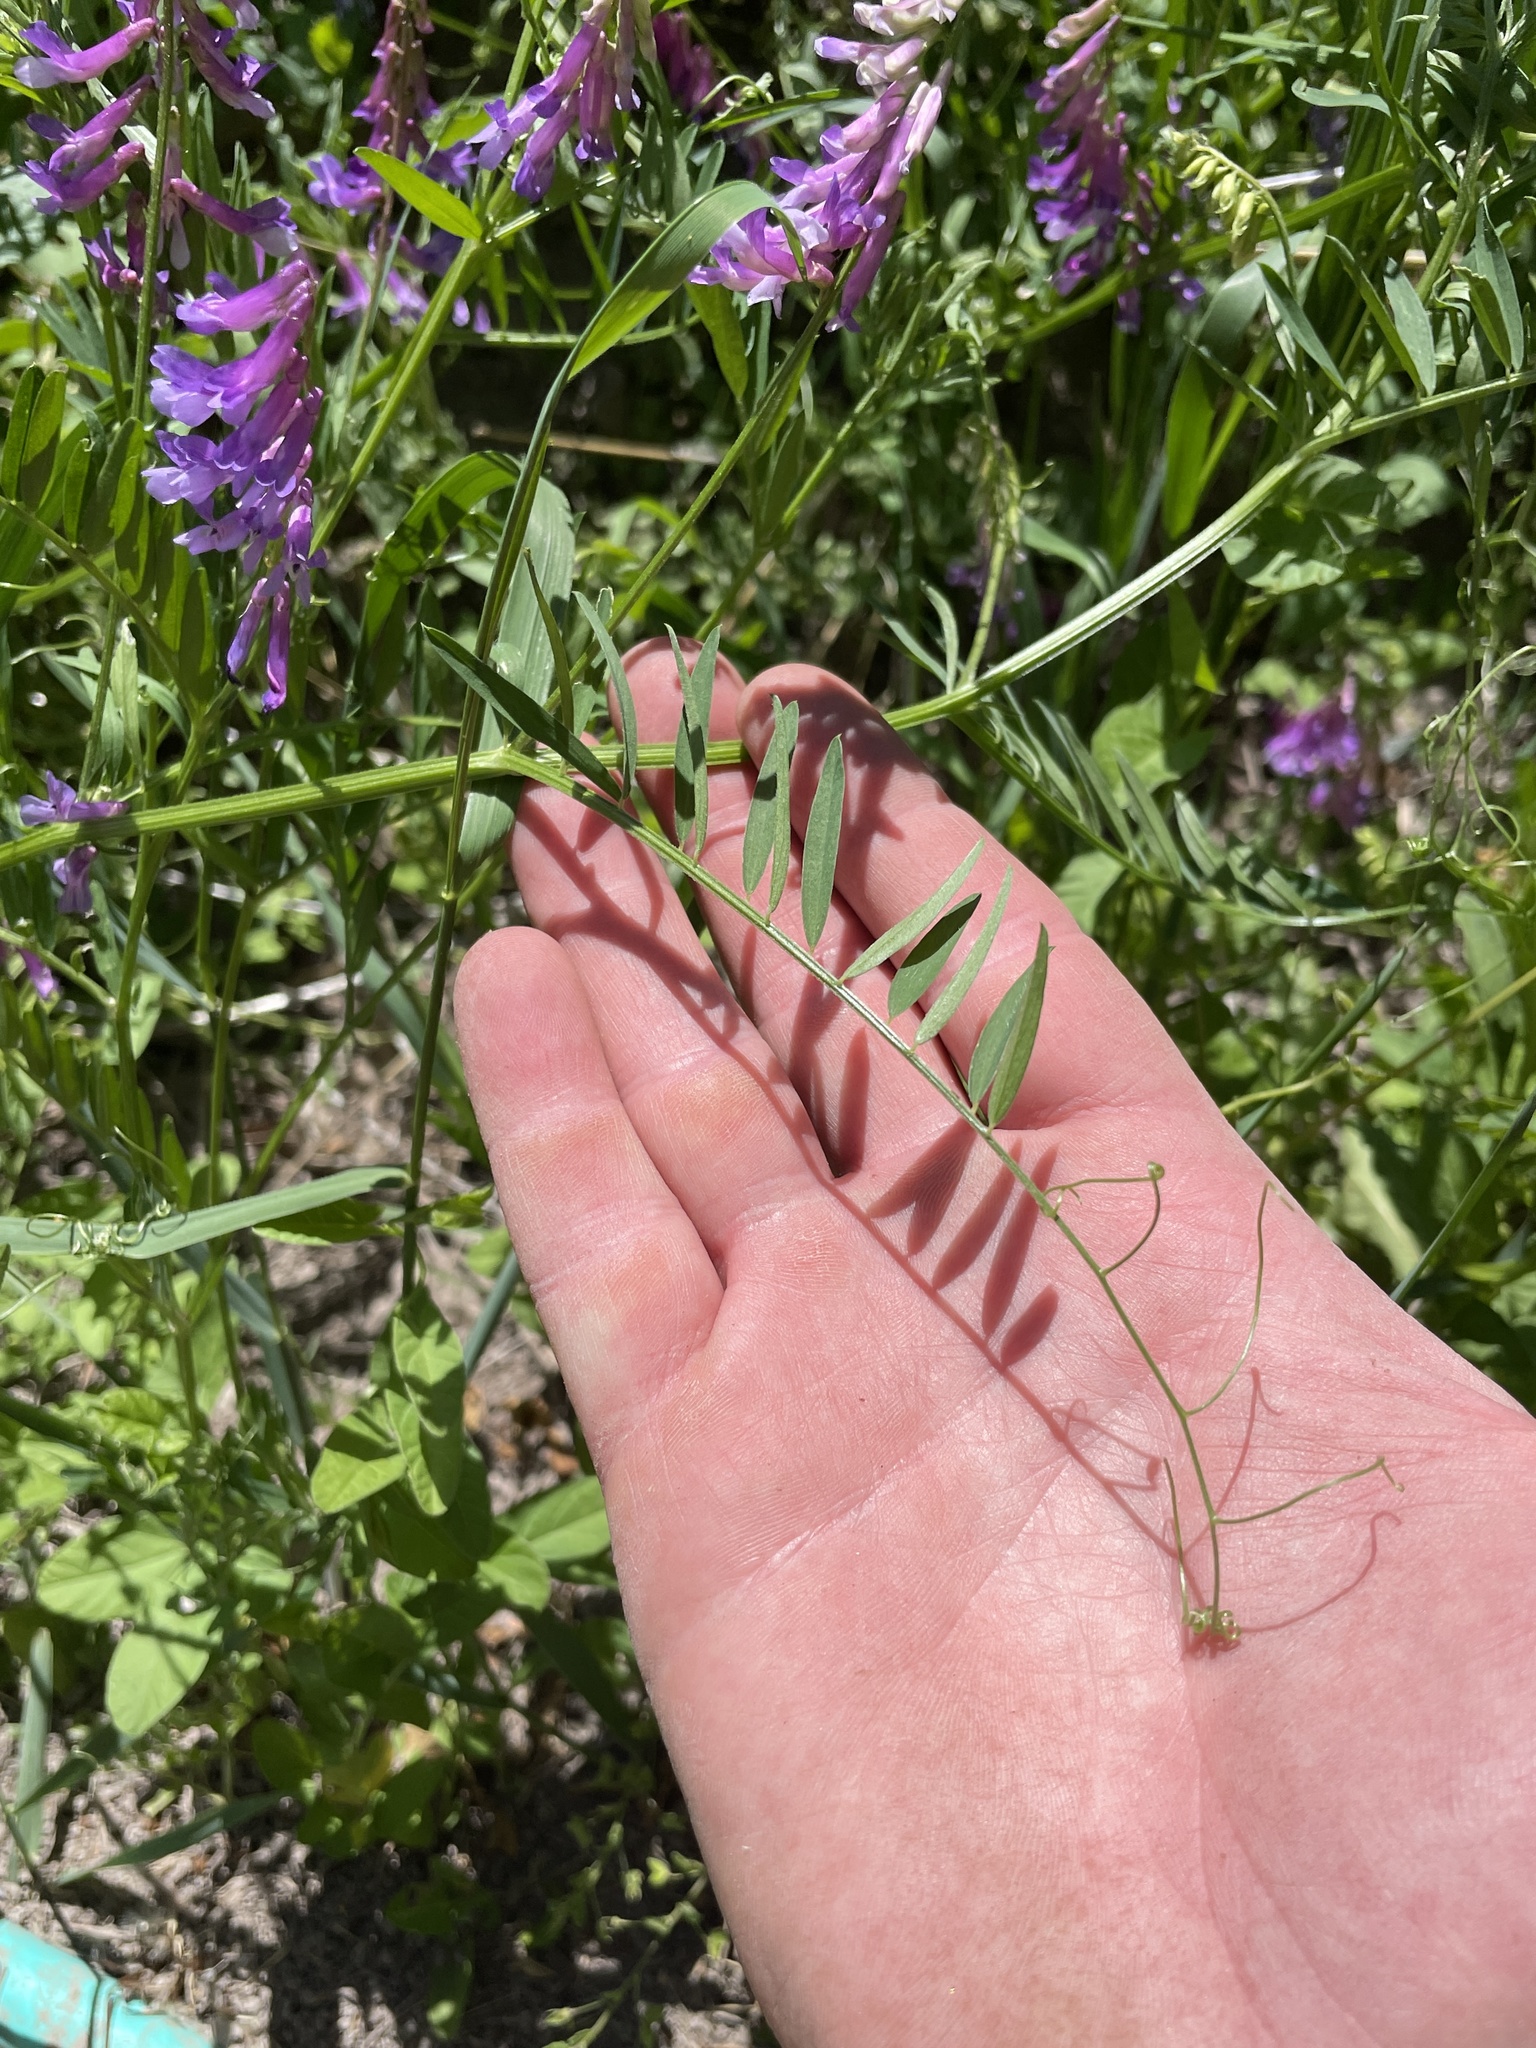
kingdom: Plantae
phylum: Tracheophyta
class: Magnoliopsida
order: Fabales
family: Fabaceae
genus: Vicia
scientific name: Vicia villosa
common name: Fodder vetch
